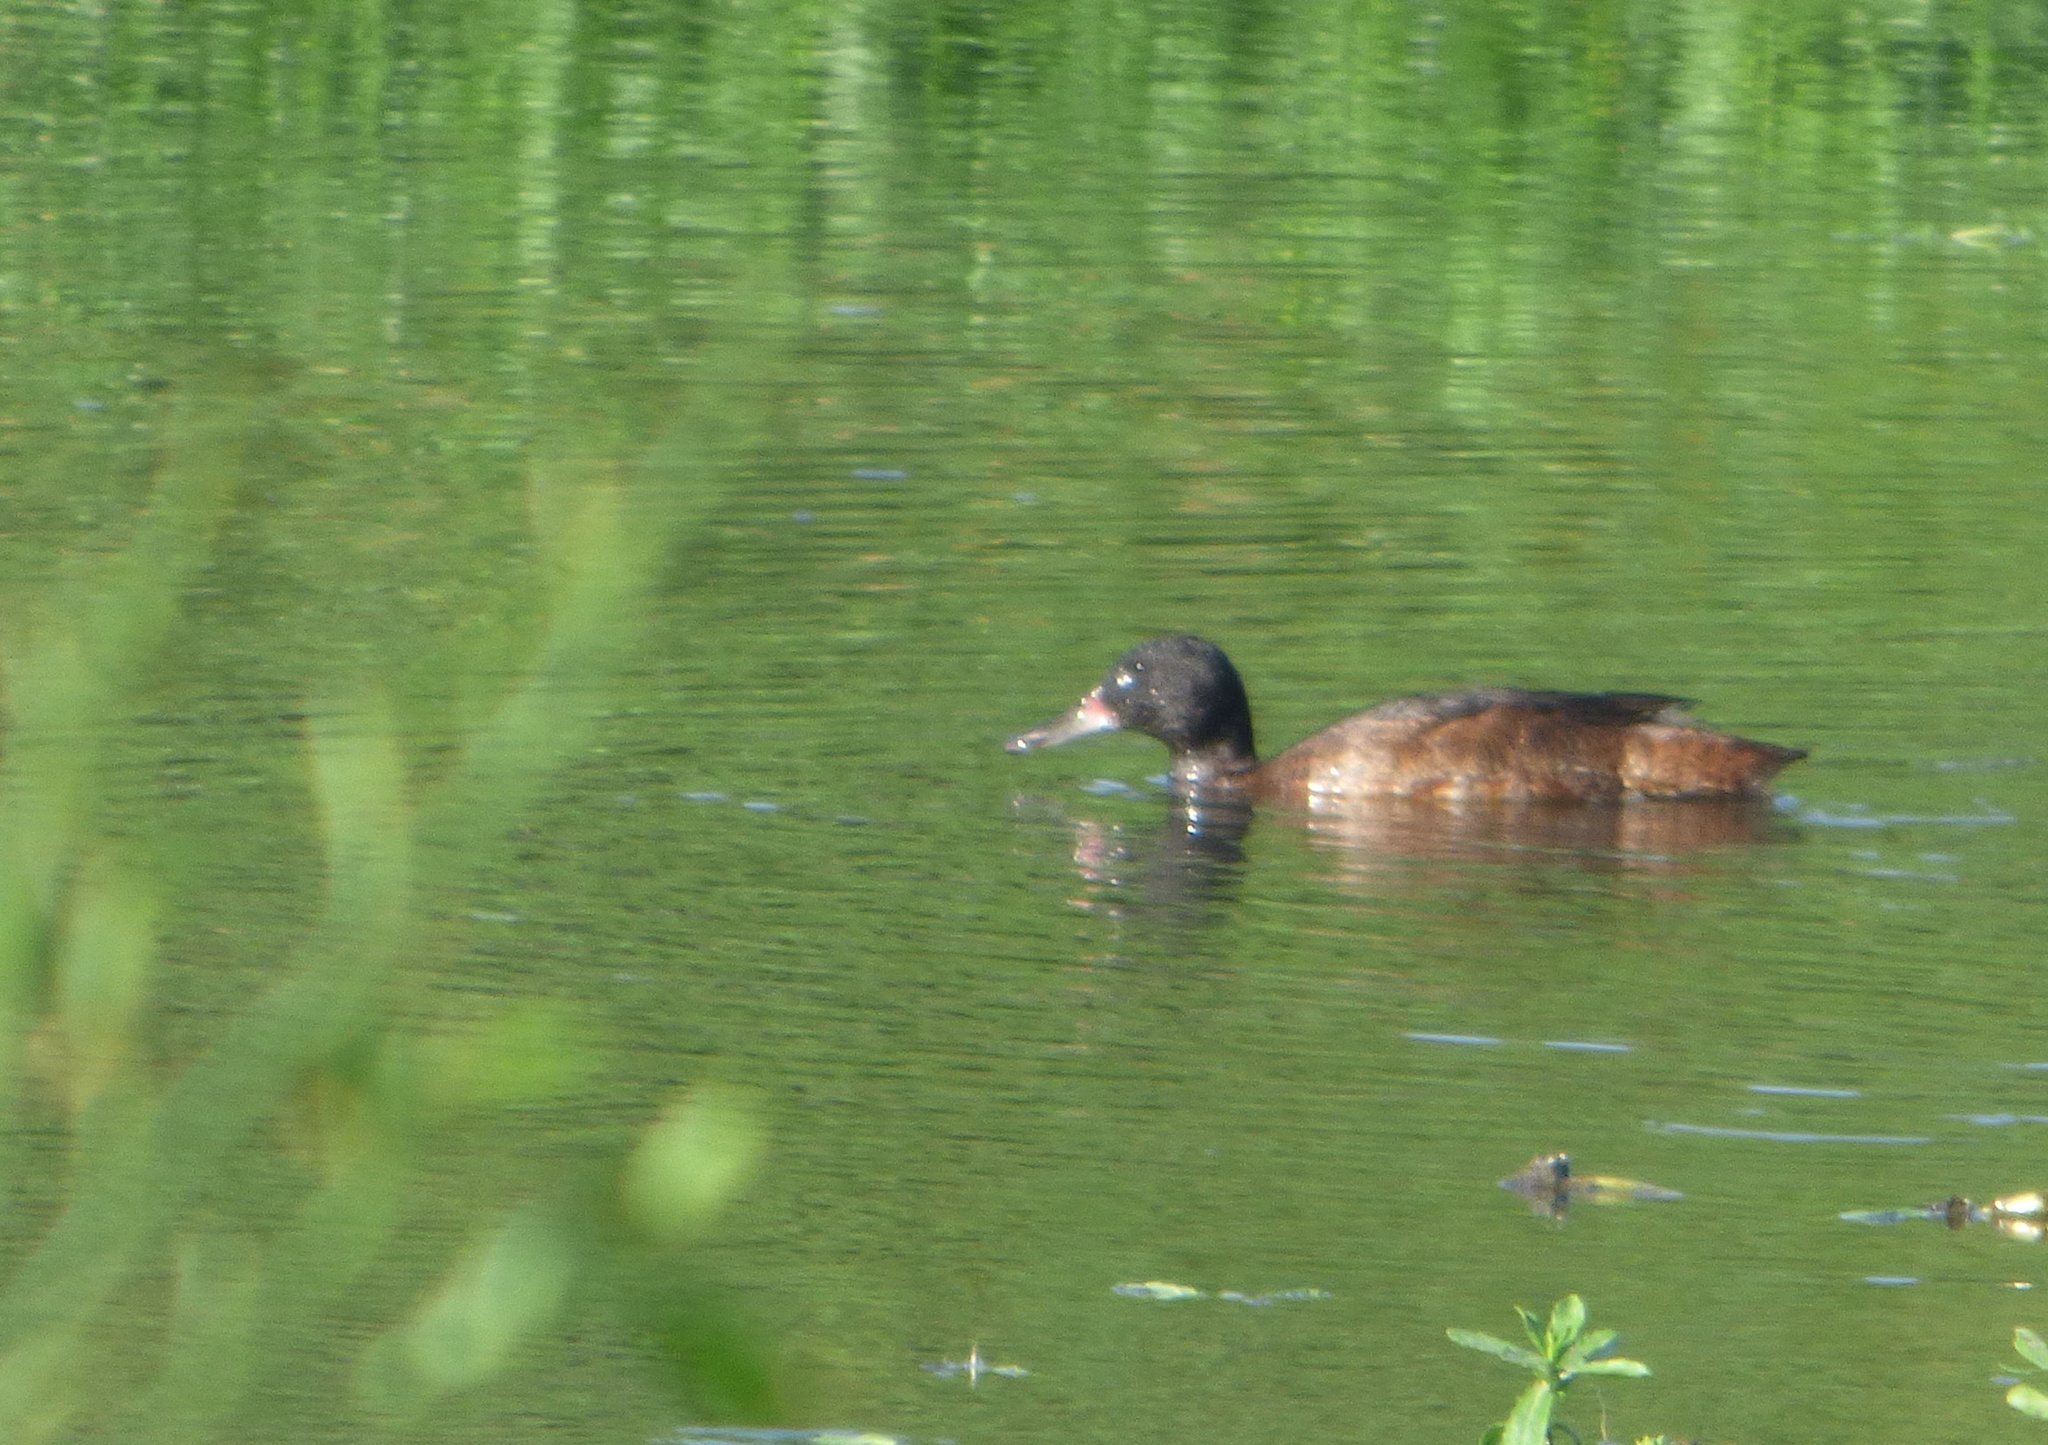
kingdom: Animalia
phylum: Chordata
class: Aves
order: Anseriformes
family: Anatidae
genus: Heteronetta
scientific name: Heteronetta atricapilla
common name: Black-headed duck
